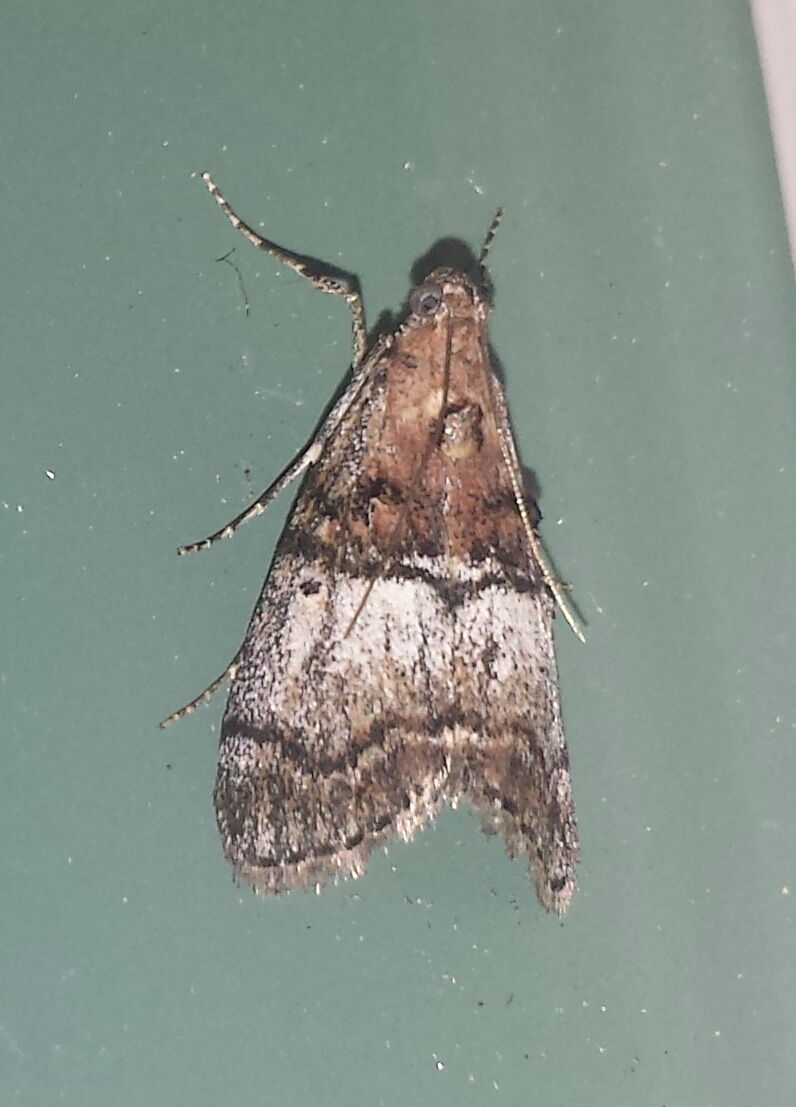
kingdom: Animalia
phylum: Arthropoda
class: Insecta
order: Lepidoptera
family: Pyralidae
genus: Pococera
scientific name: Pococera maritimalis
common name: Gray-banded pococera moth
